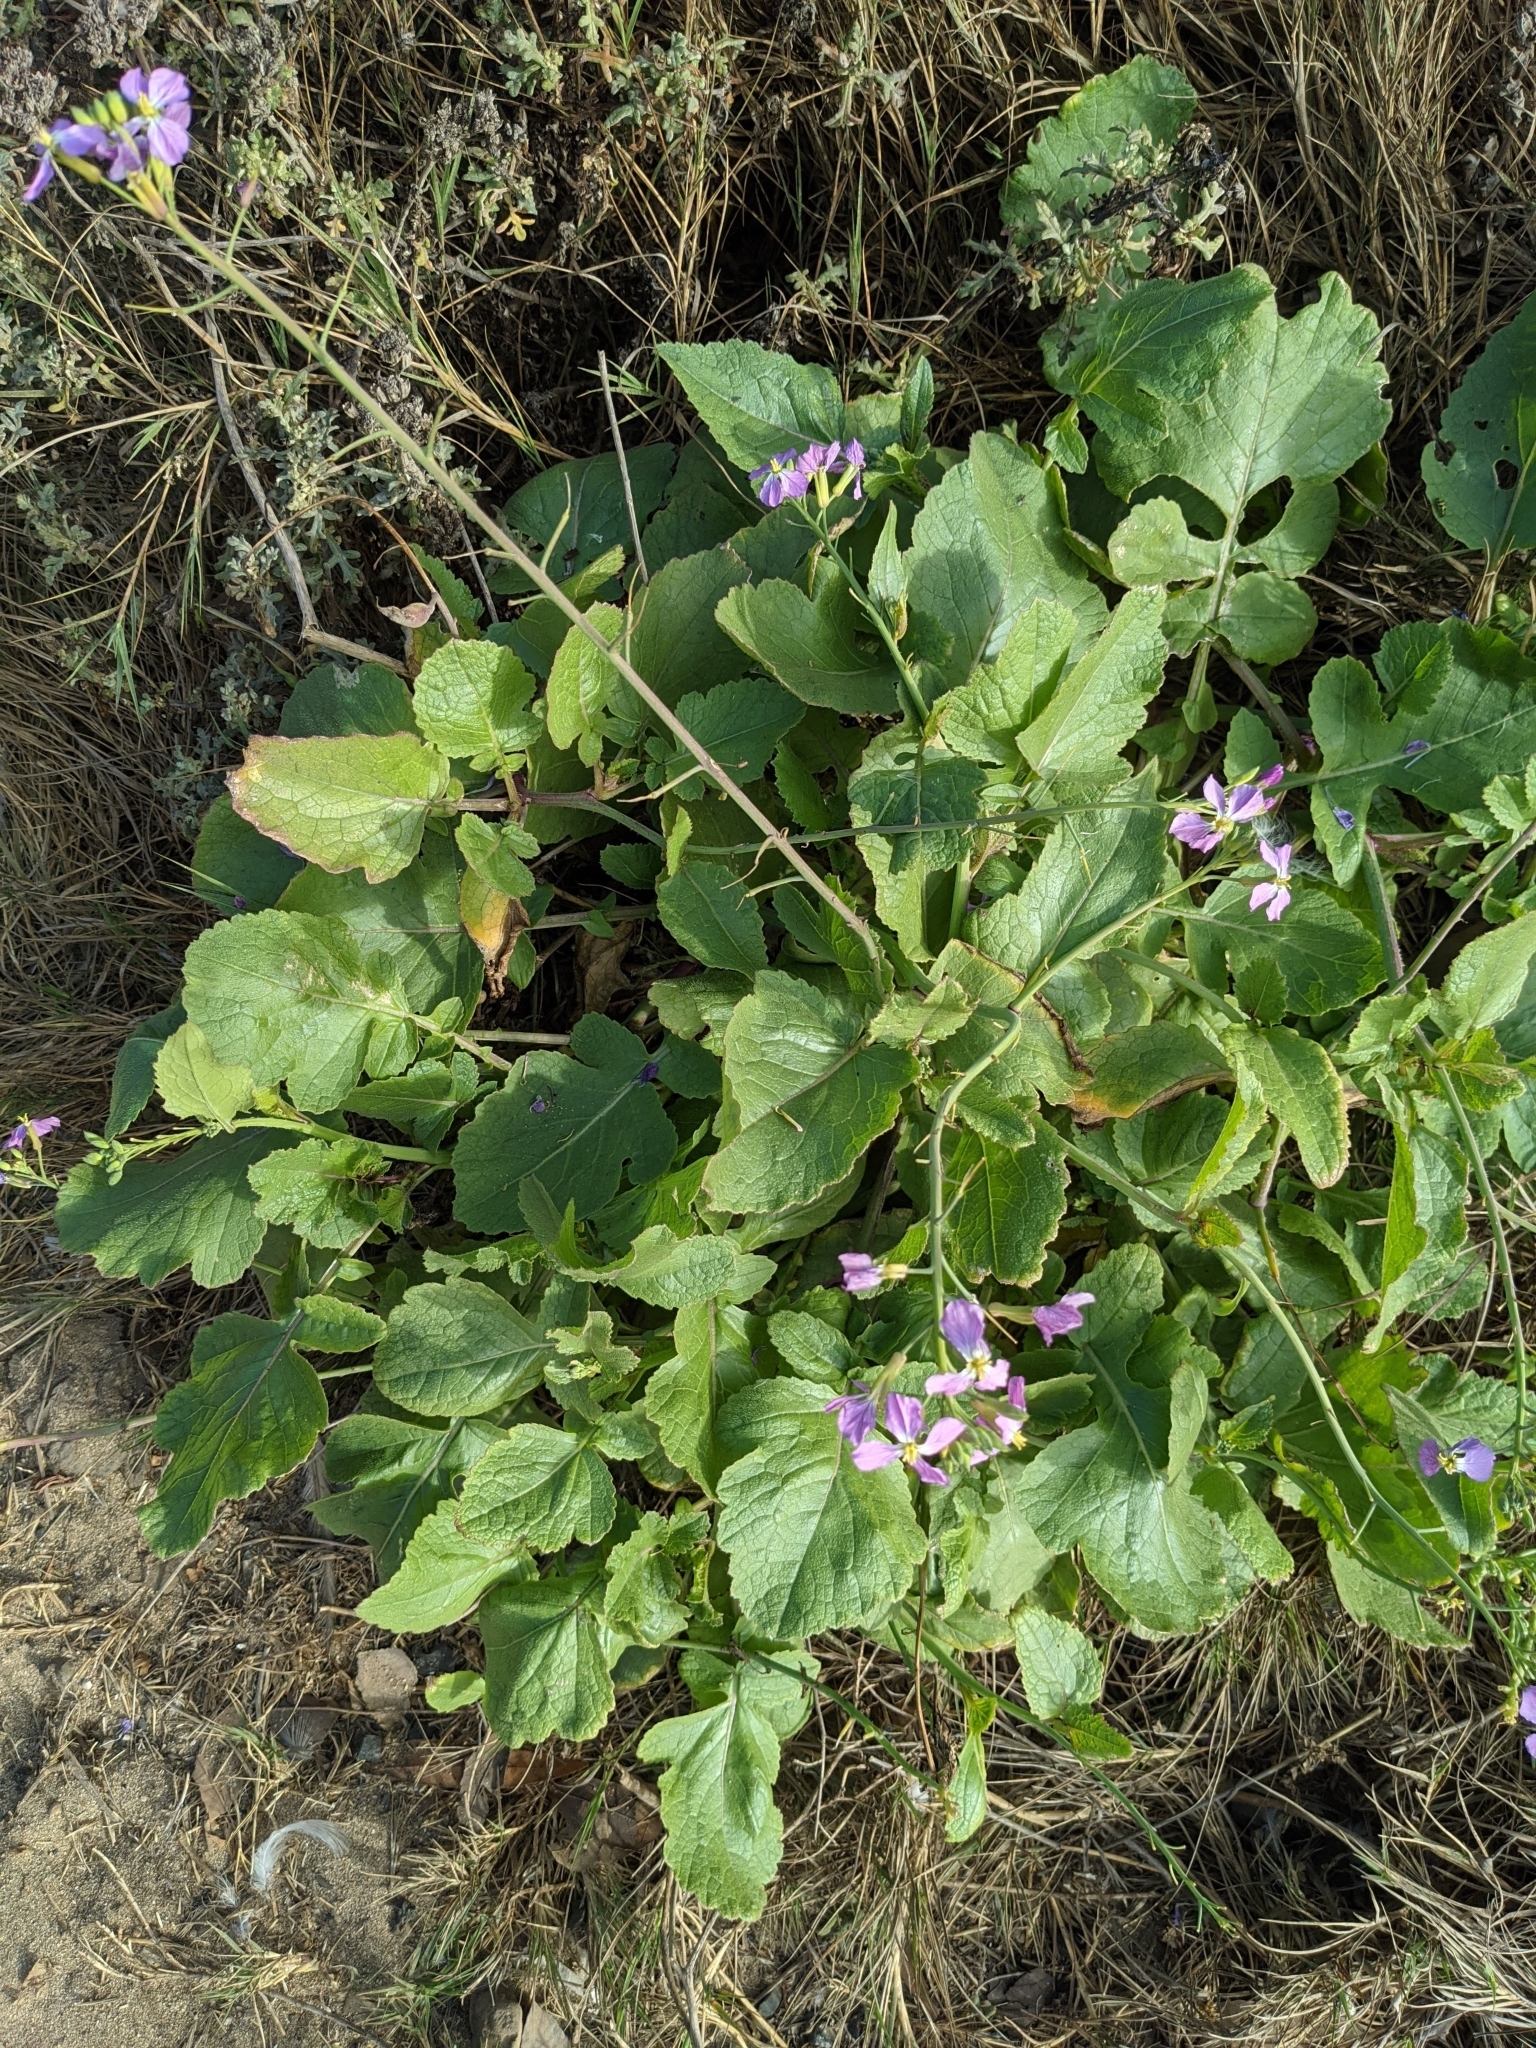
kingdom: Plantae
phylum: Tracheophyta
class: Magnoliopsida
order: Brassicales
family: Brassicaceae
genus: Raphanus
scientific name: Raphanus sativus
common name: Cultivated radish
